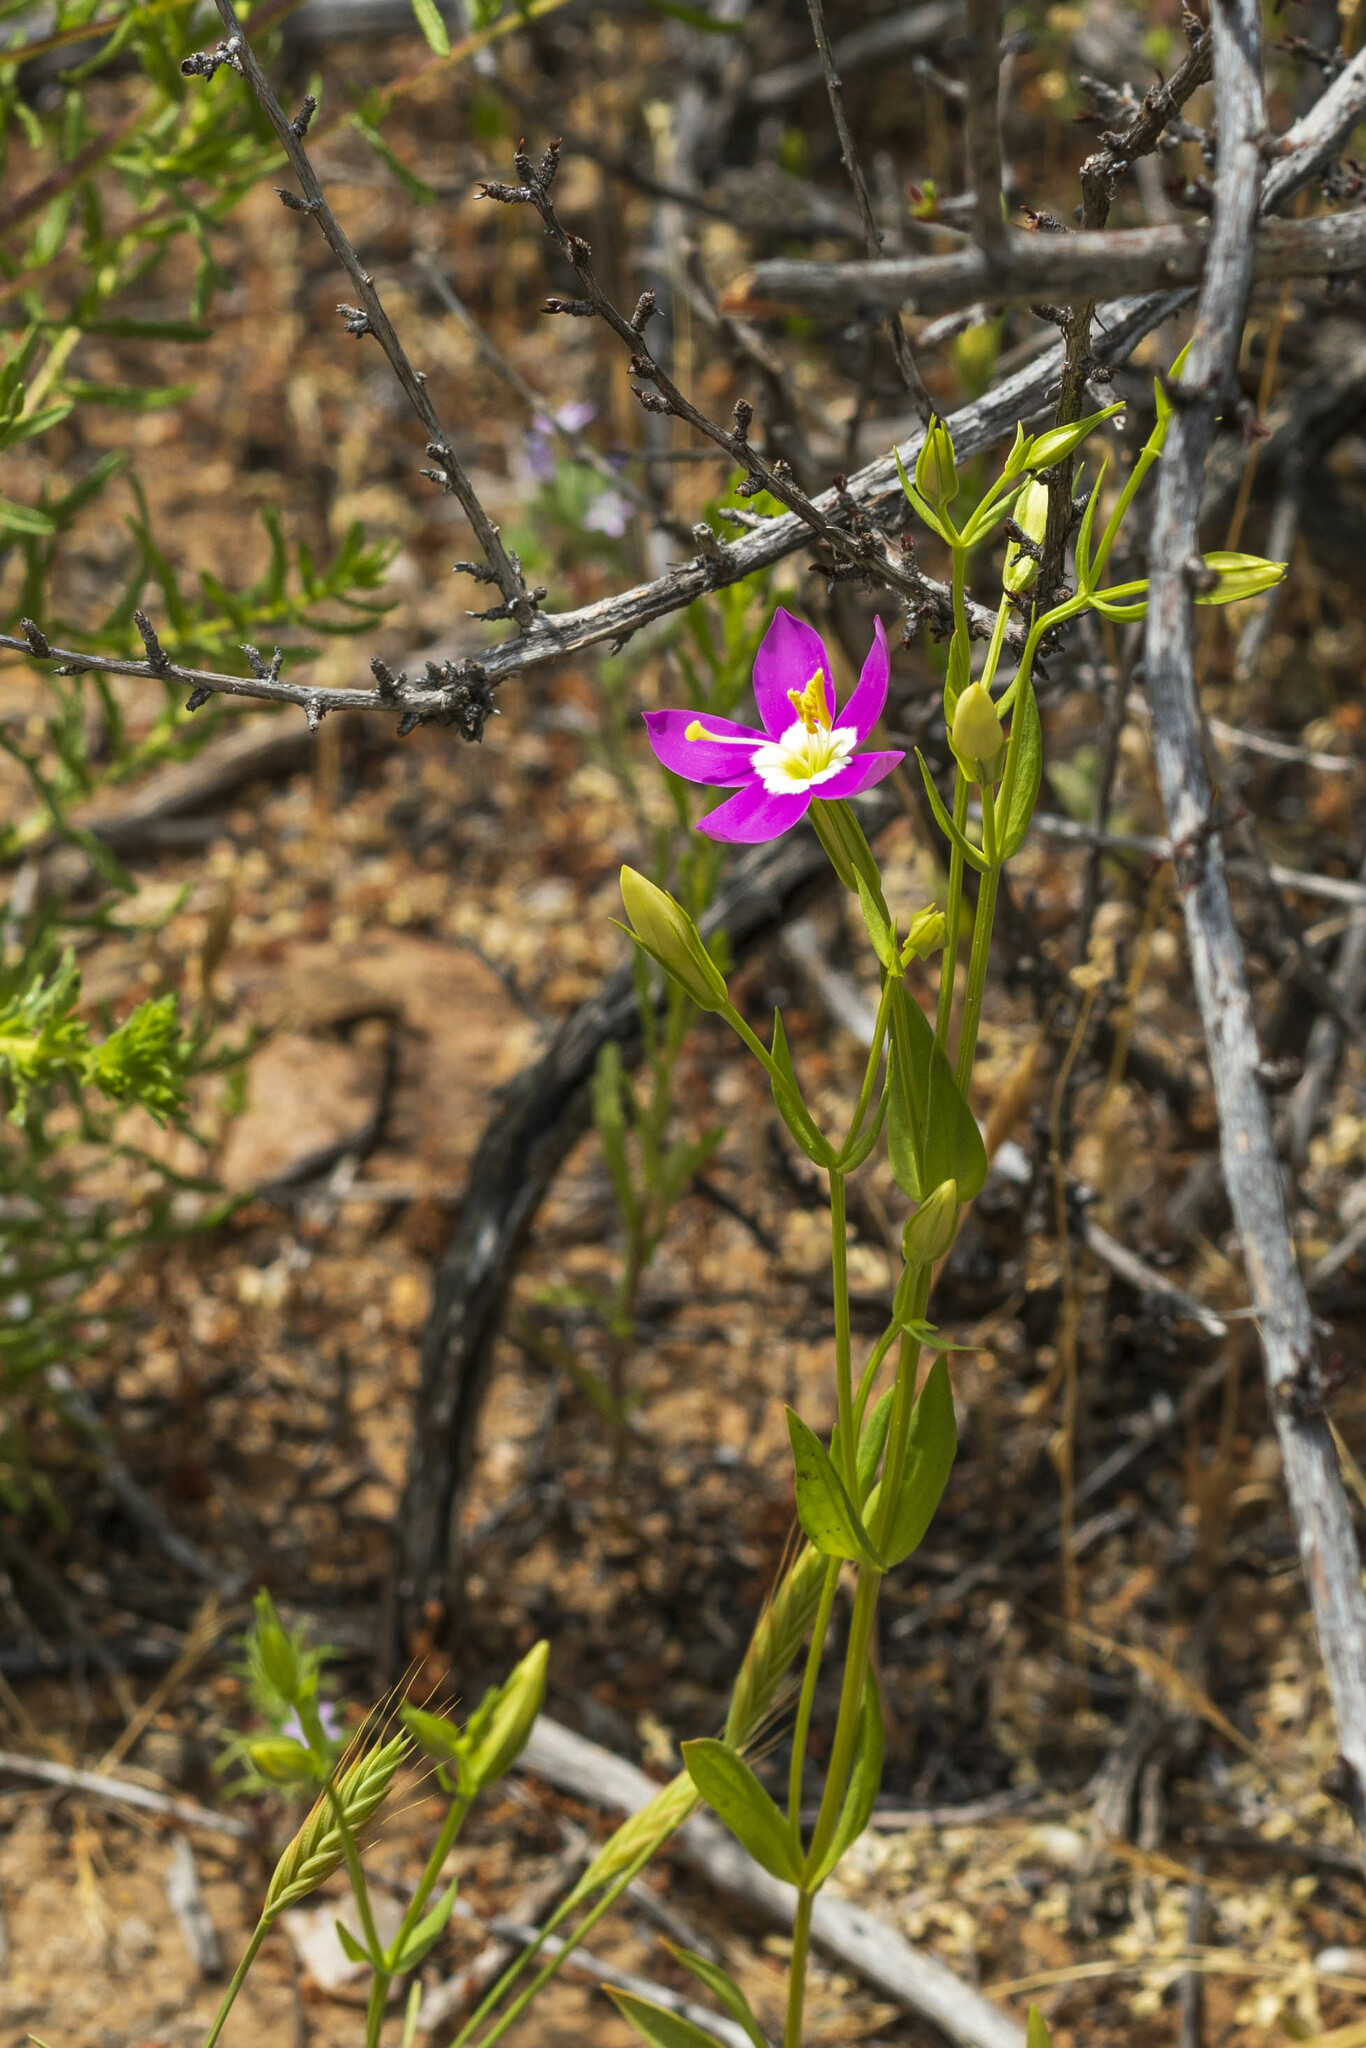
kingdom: Plantae
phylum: Tracheophyta
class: Magnoliopsida
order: Gentianales
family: Gentianaceae
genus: Zeltnera
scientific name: Zeltnera venusta
